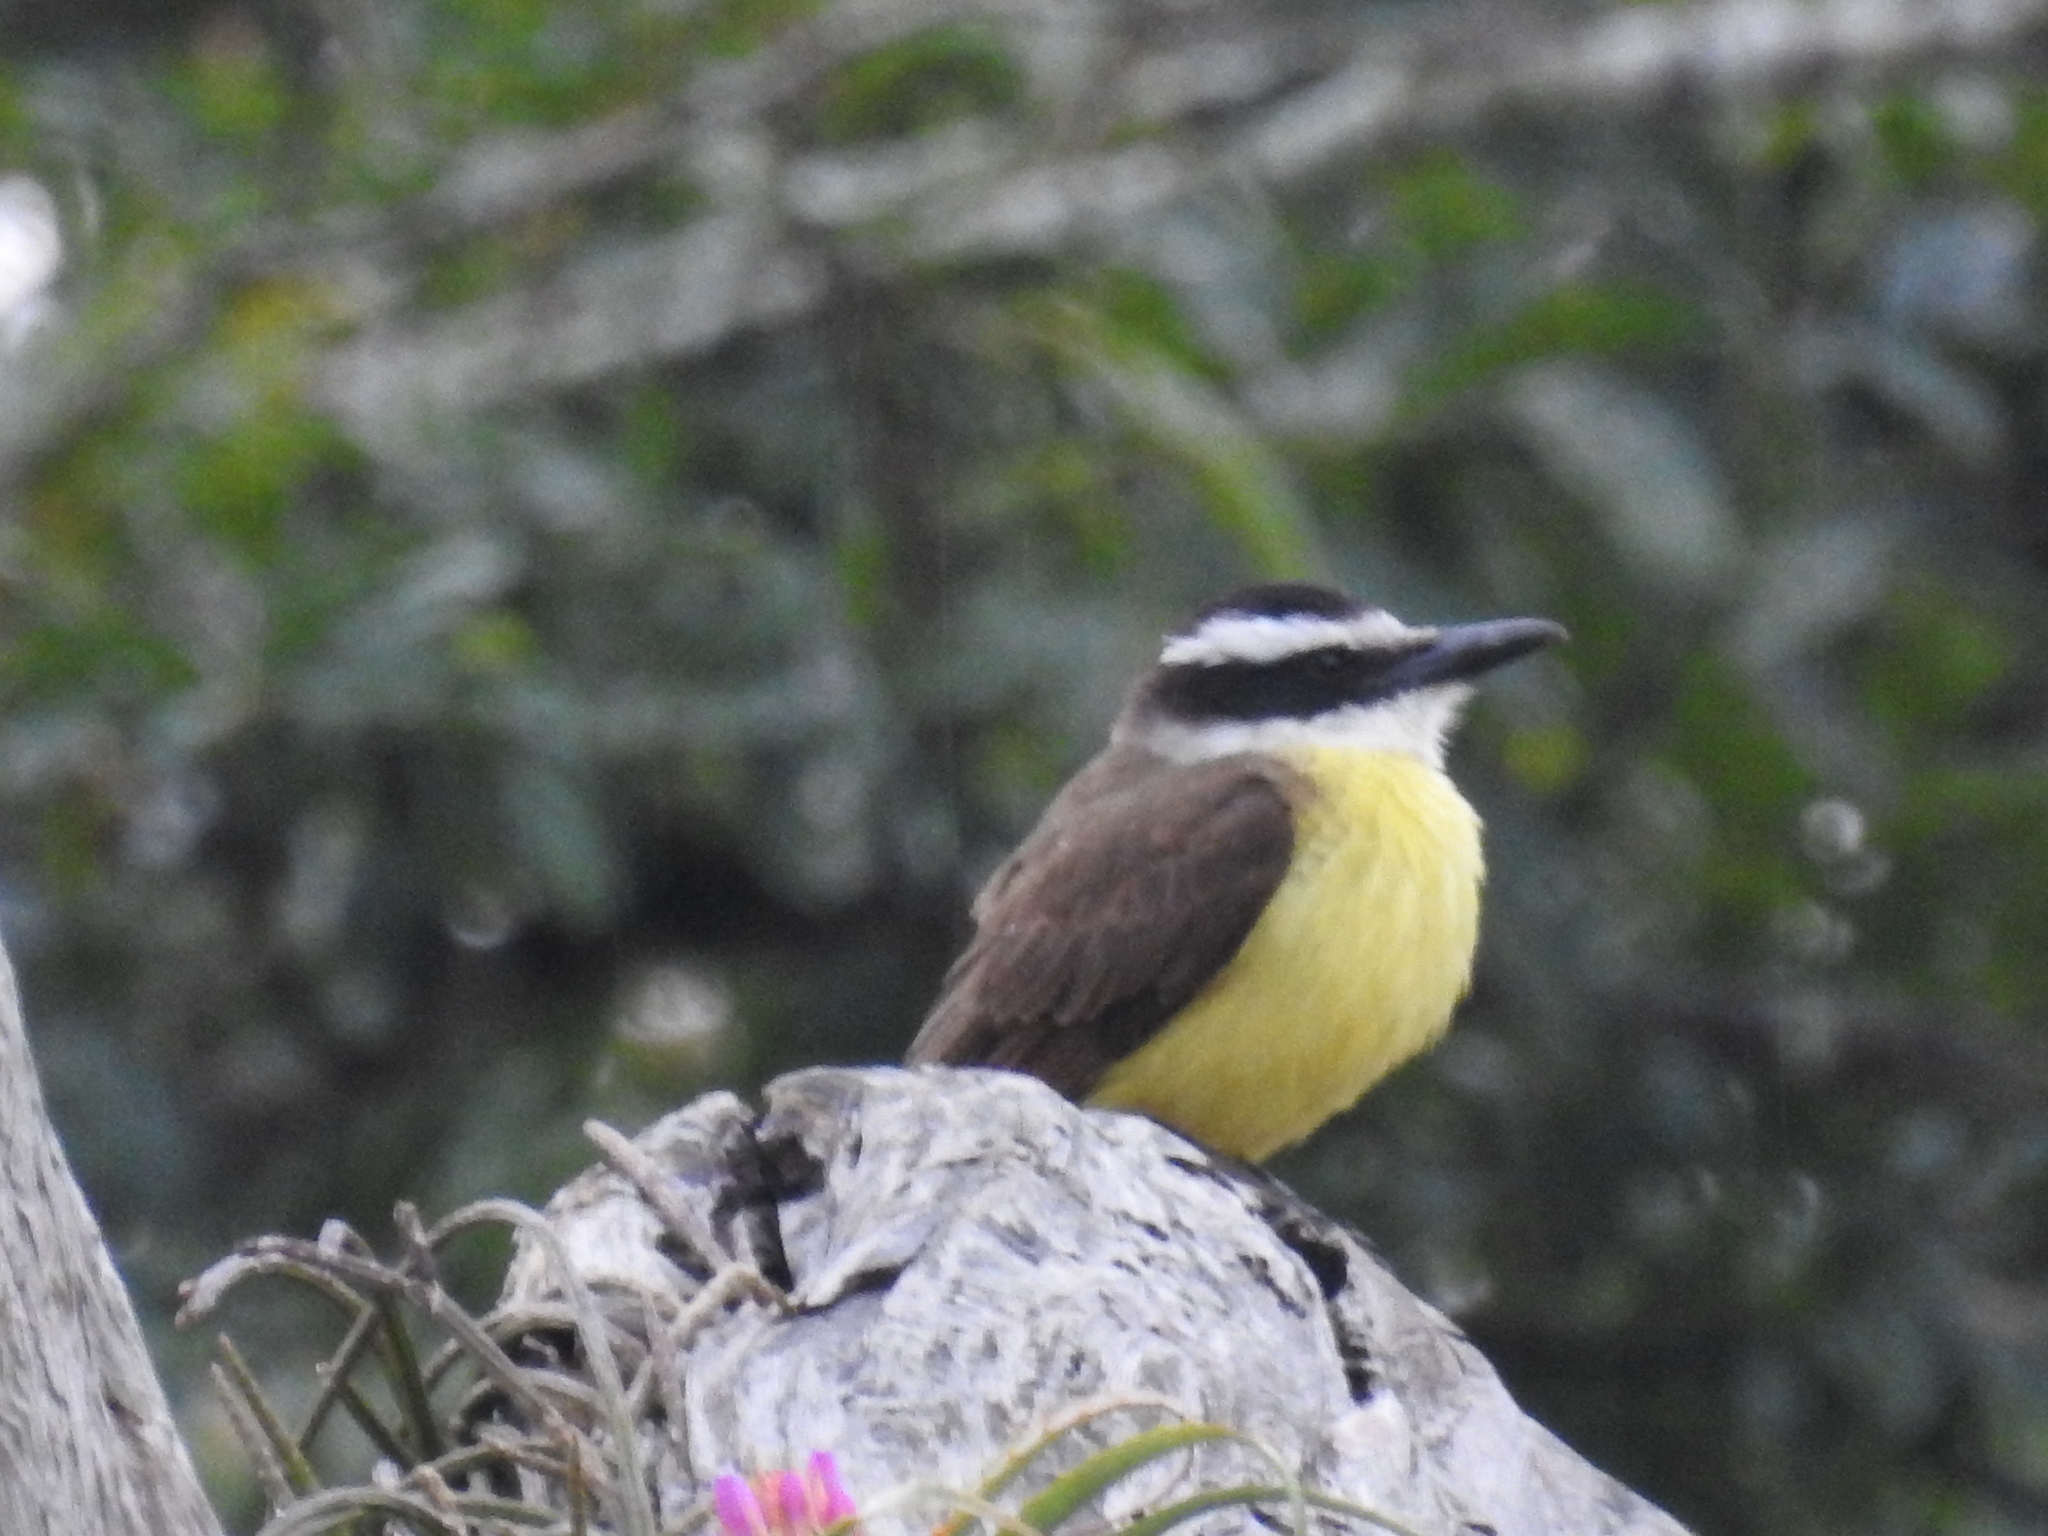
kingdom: Animalia
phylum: Chordata
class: Aves
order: Passeriformes
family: Tyrannidae
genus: Pitangus
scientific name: Pitangus sulphuratus
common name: Great kiskadee
